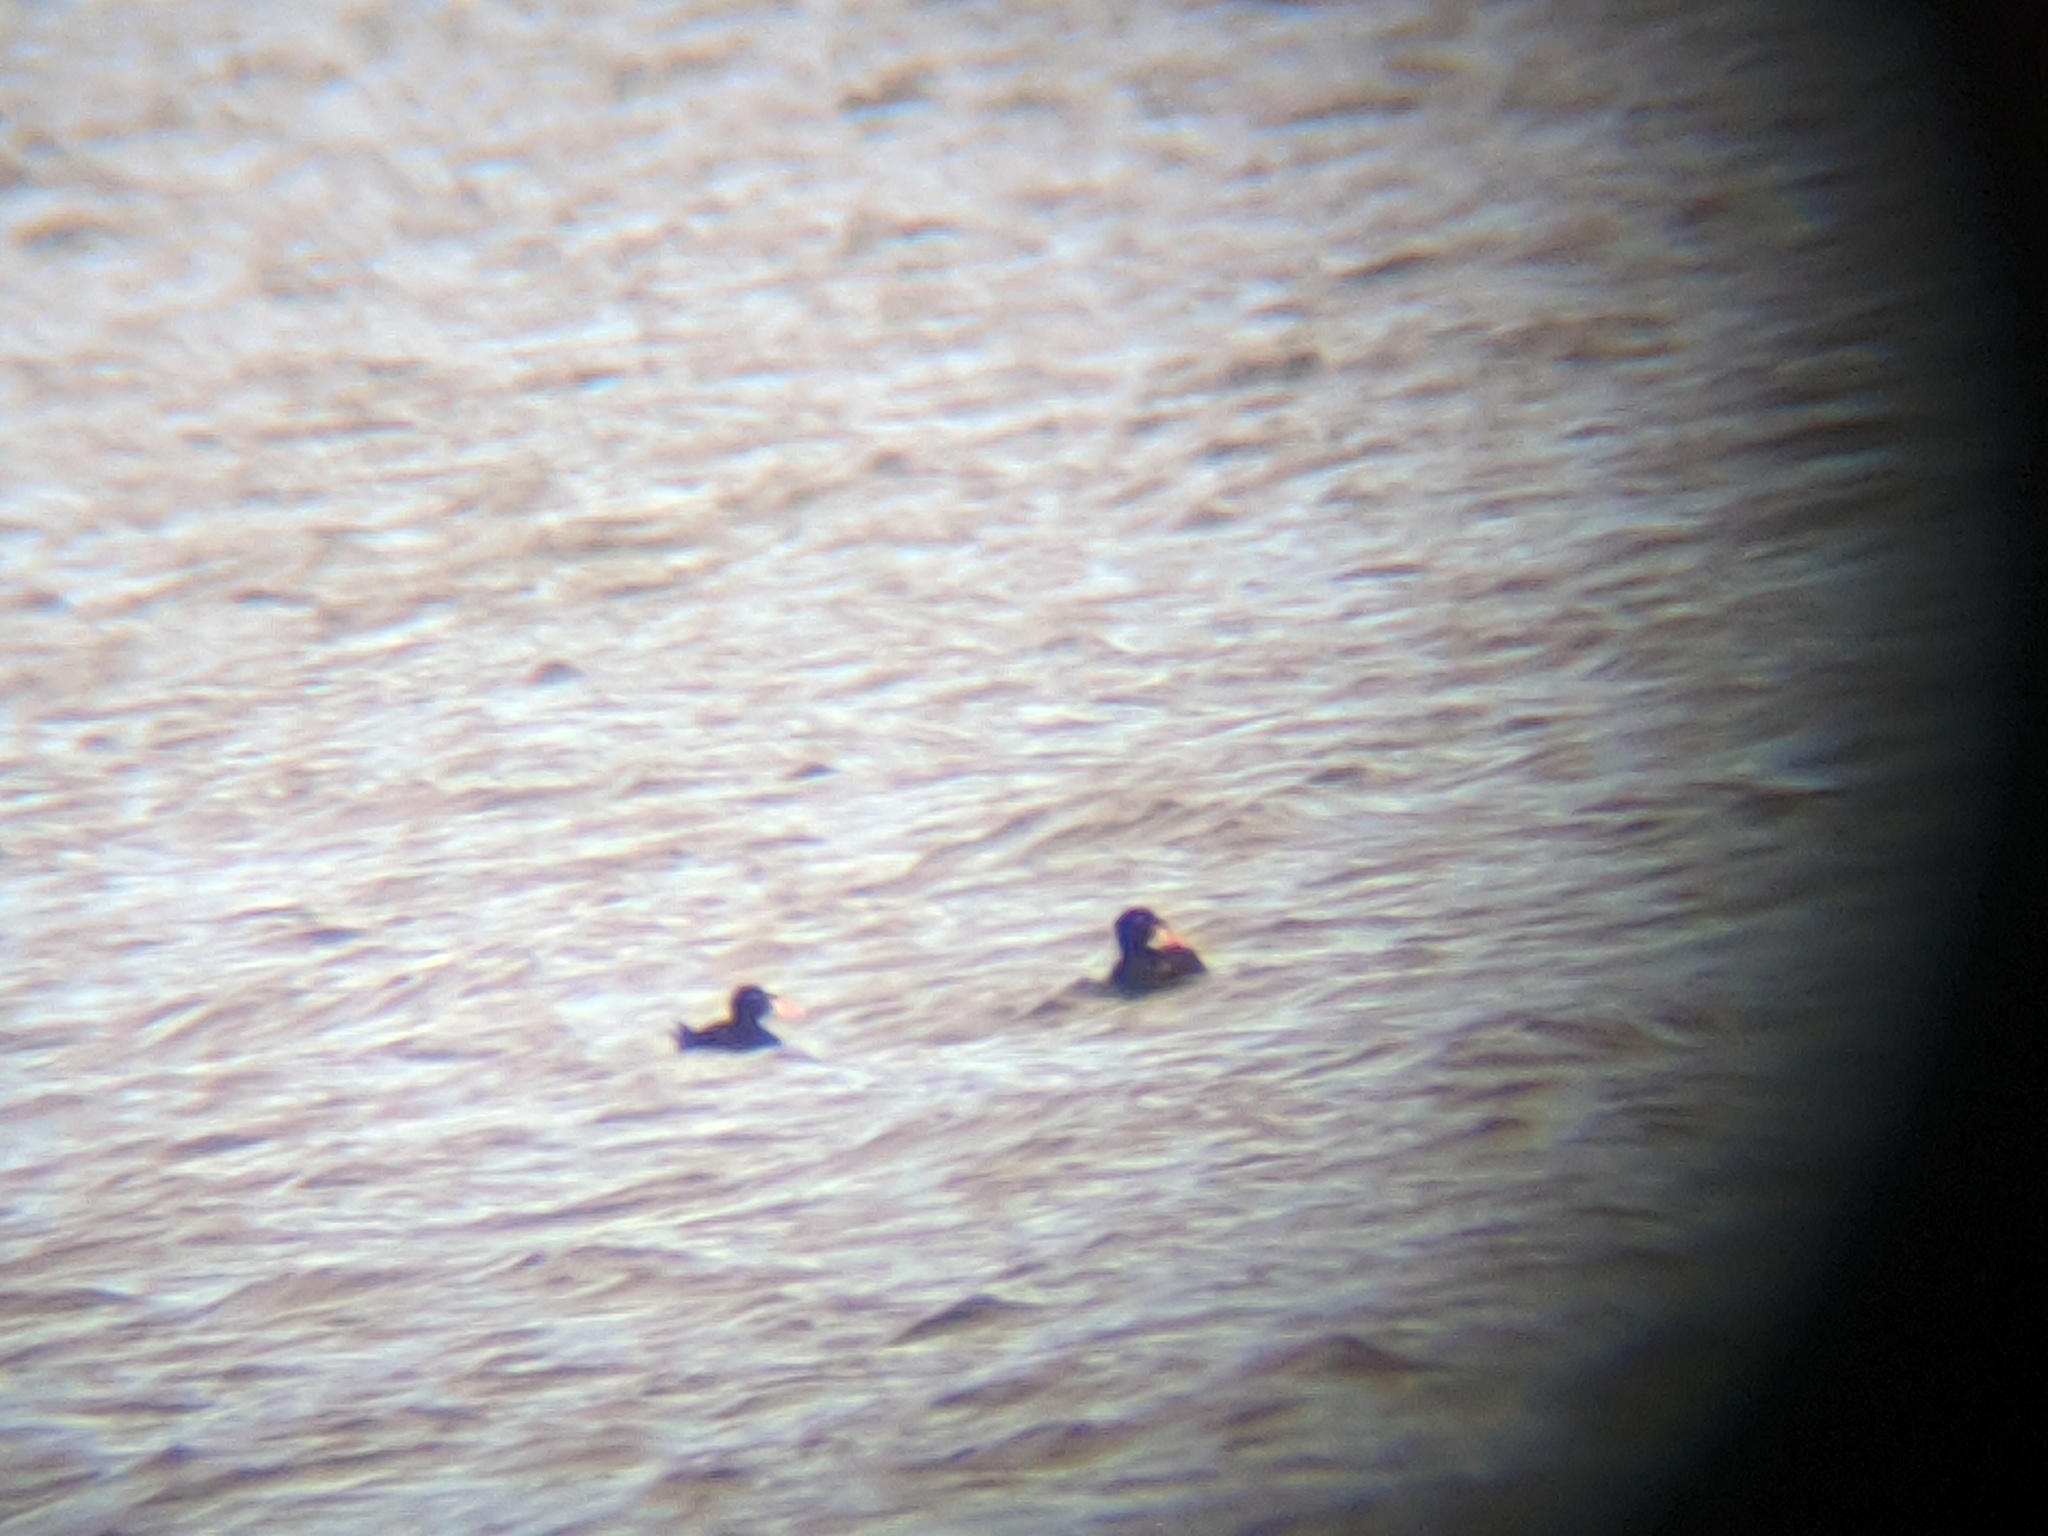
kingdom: Animalia
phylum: Chordata
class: Aves
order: Anseriformes
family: Anatidae
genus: Melanitta
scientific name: Melanitta perspicillata
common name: Surf scoter
